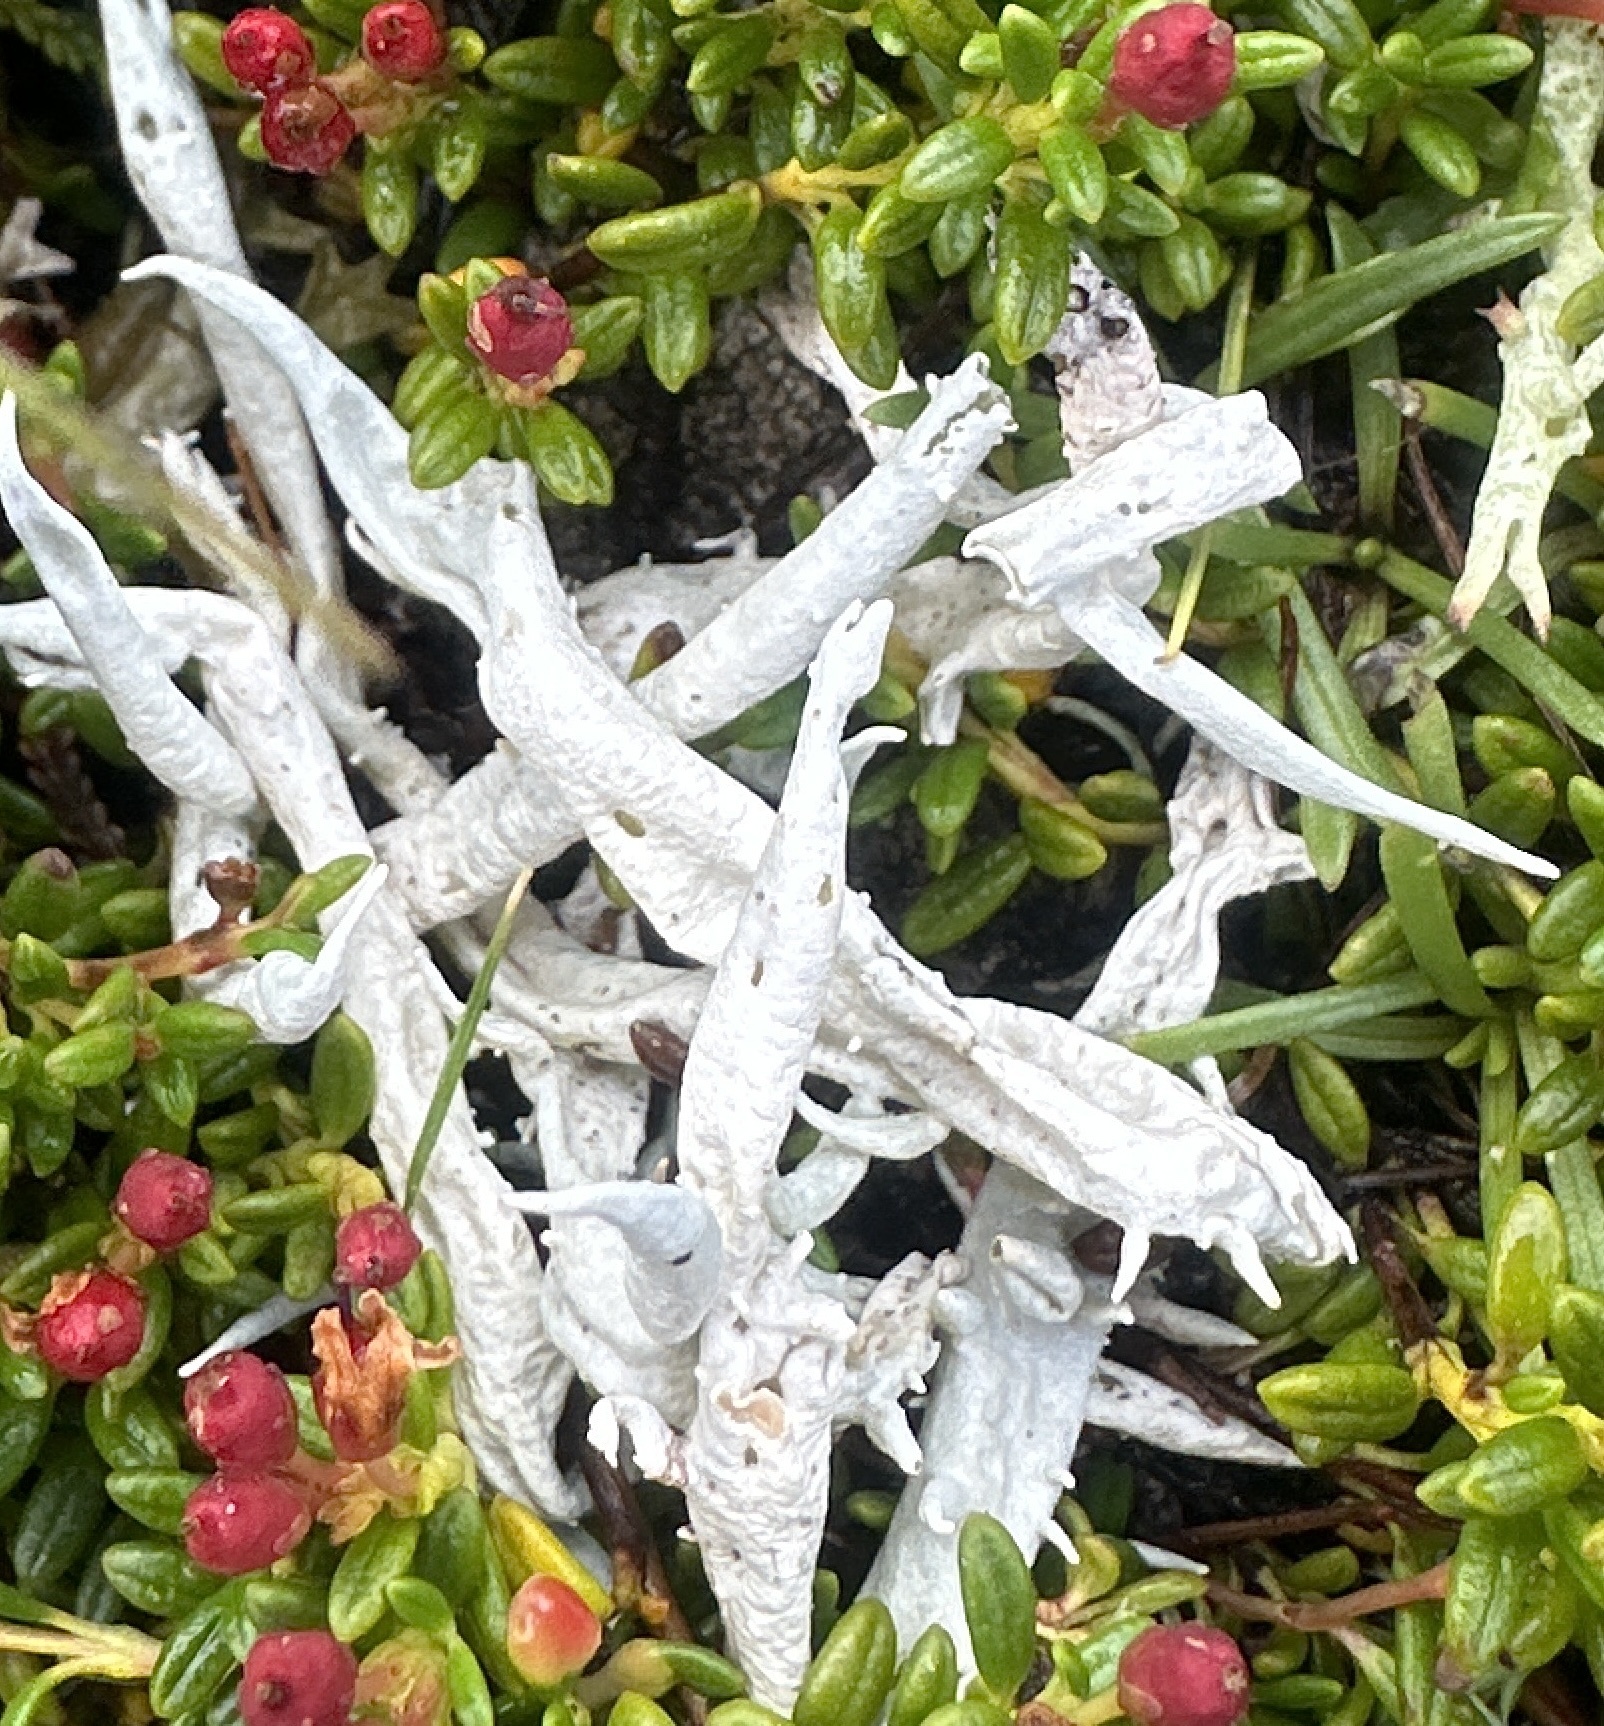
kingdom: Fungi
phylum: Ascomycota
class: Lecanoromycetes
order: Pertusariales
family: Icmadophilaceae
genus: Thamnolia
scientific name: Thamnolia vermicularis
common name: Whiteworm lichen
